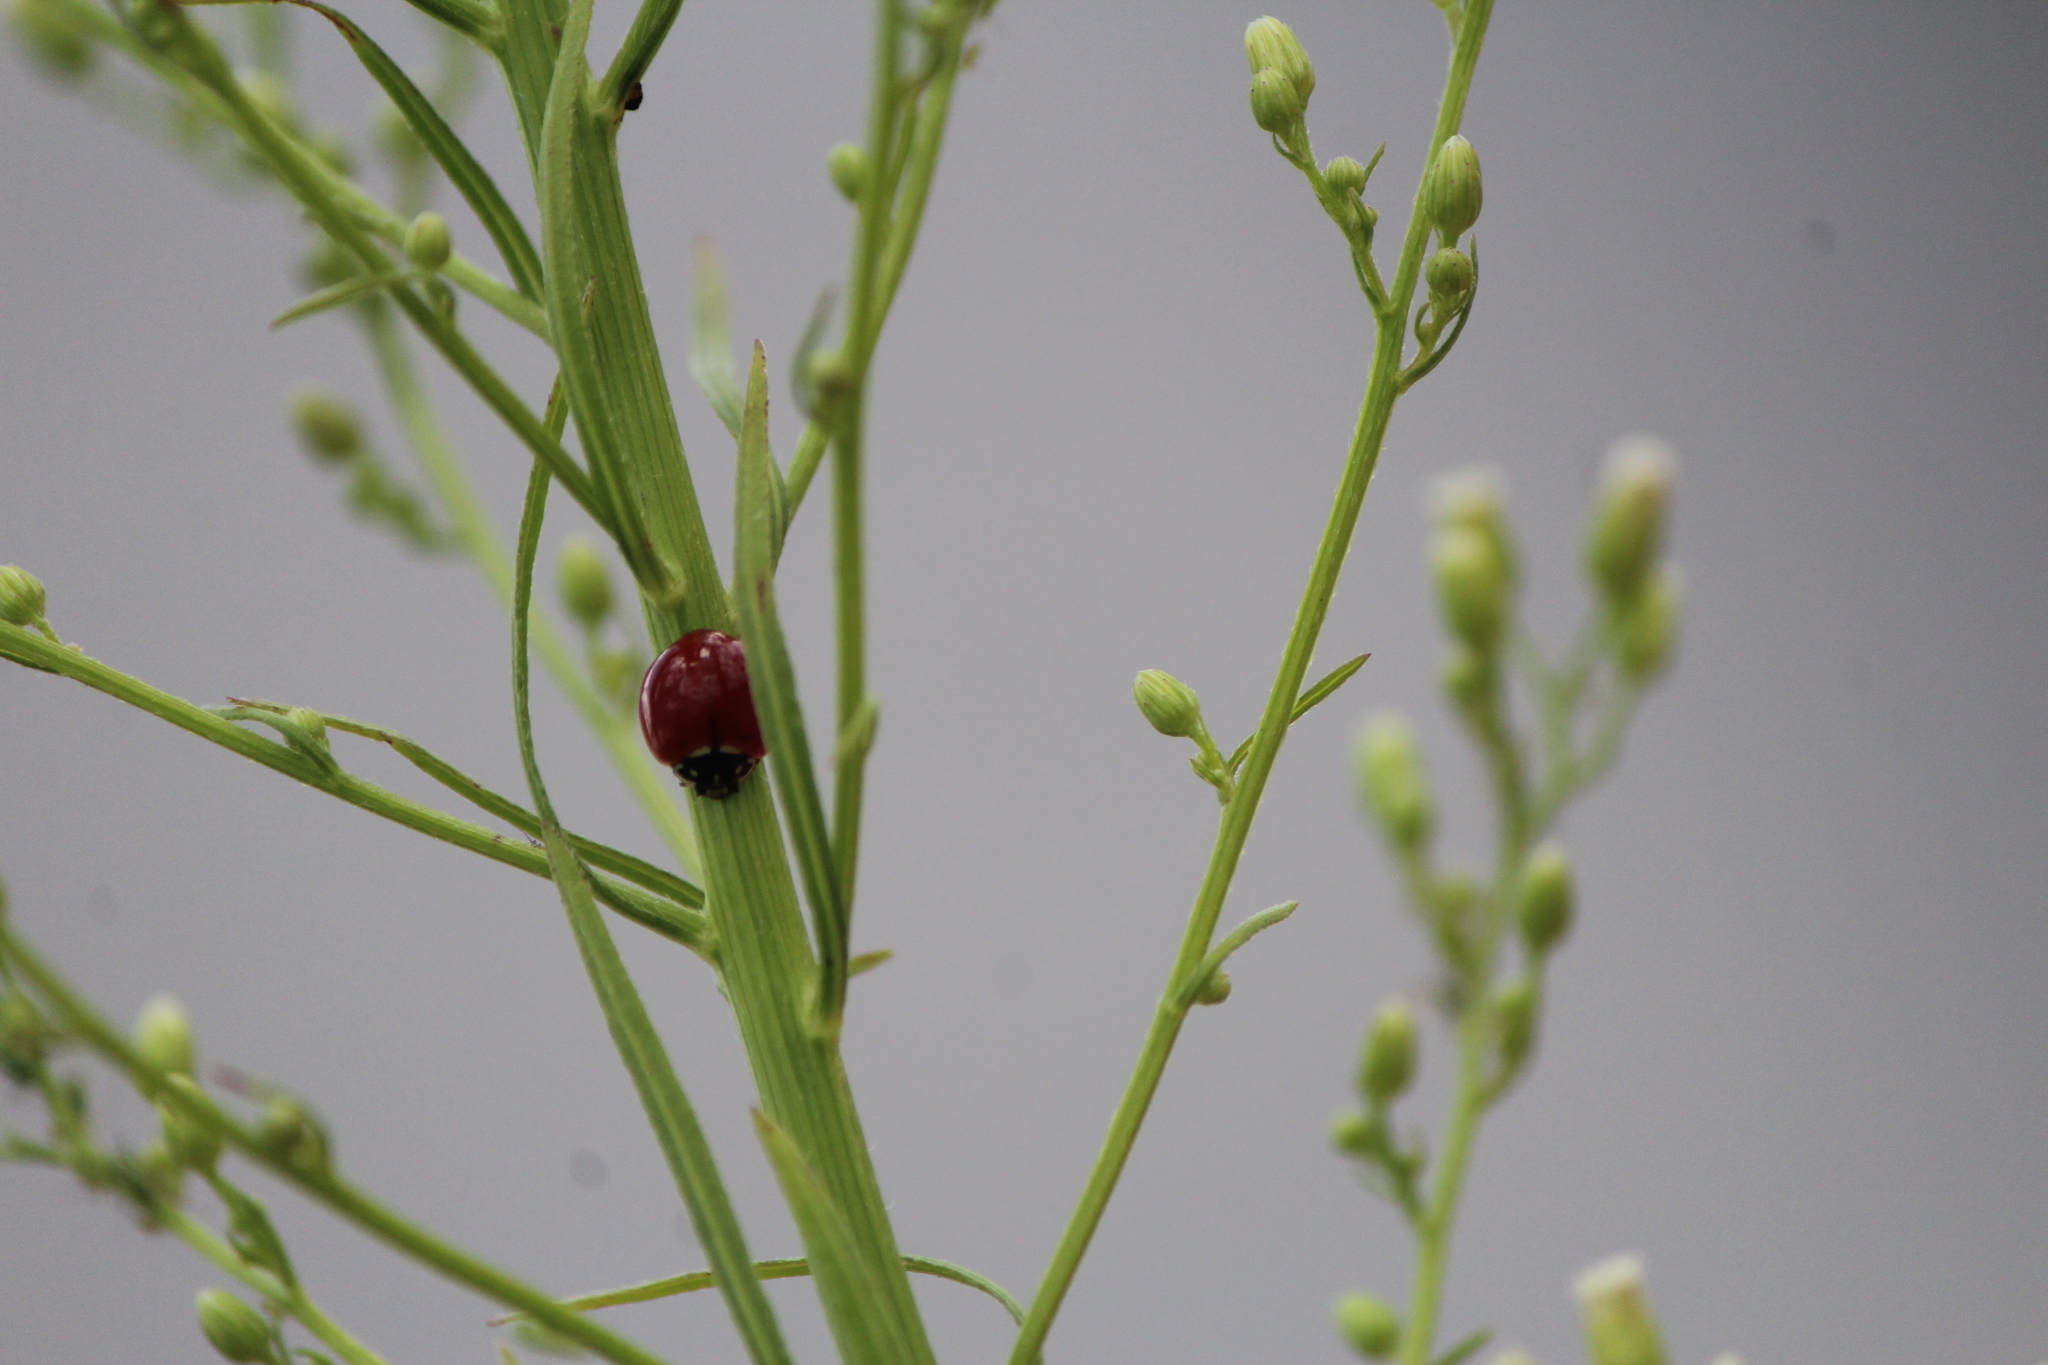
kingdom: Animalia
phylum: Arthropoda
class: Insecta
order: Coleoptera
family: Coccinellidae
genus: Cycloneda
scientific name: Cycloneda sanguinea
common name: Ladybird beetle
